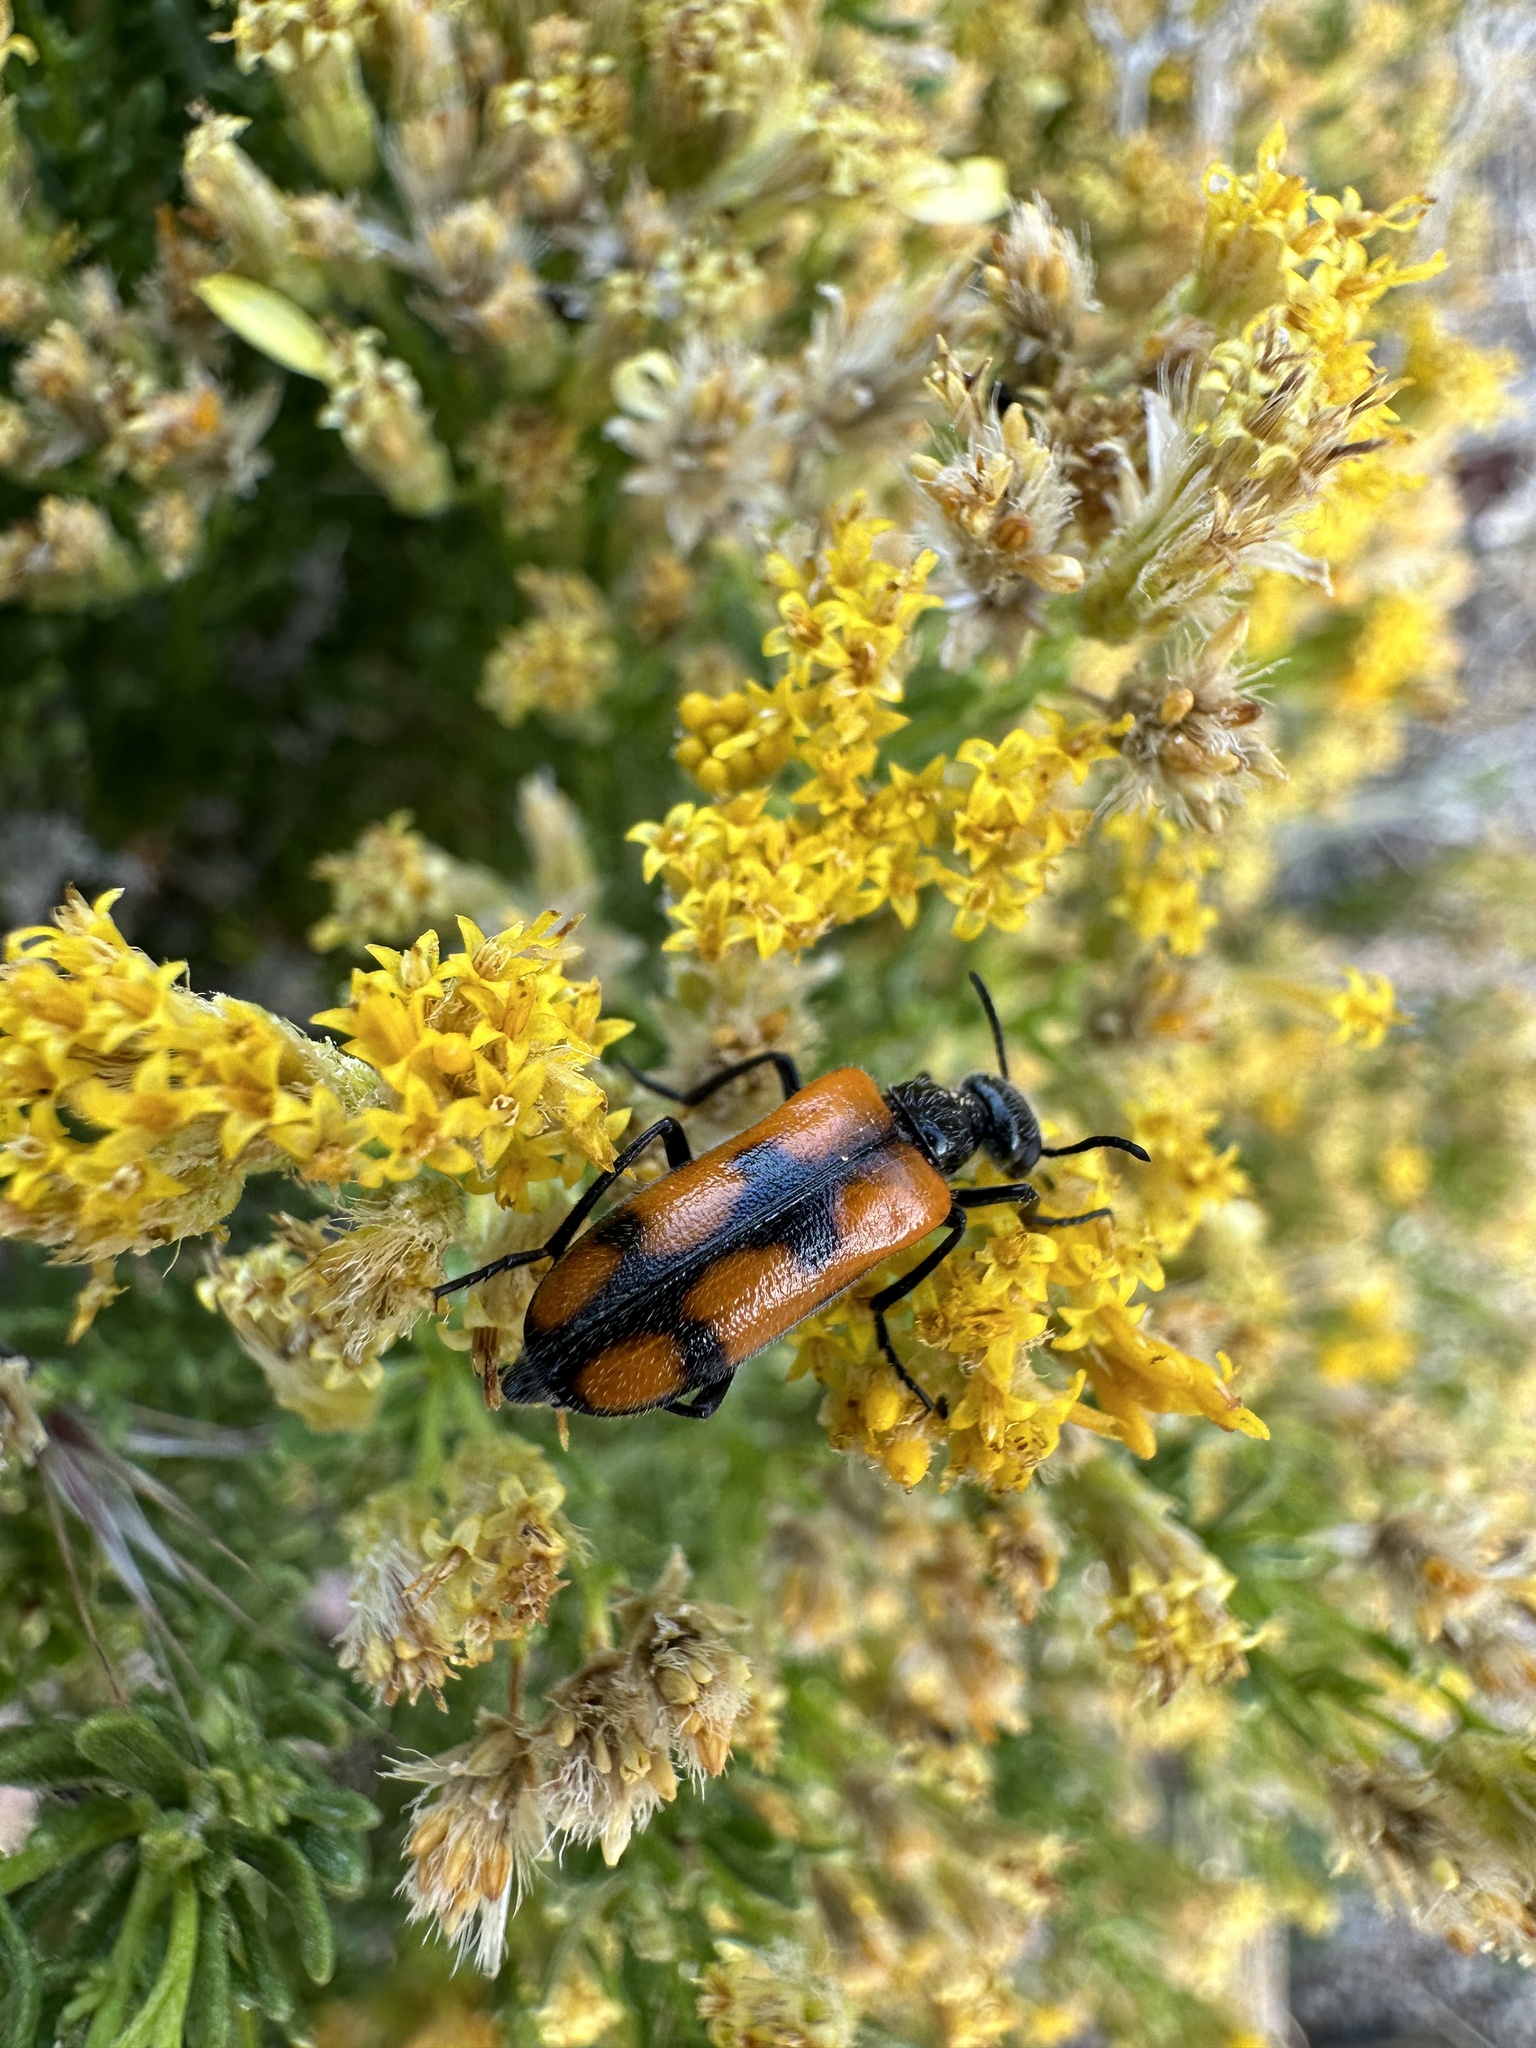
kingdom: Animalia
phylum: Arthropoda
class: Insecta
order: Coleoptera
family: Meloidae
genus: Eupompha
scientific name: Eupompha elegans
